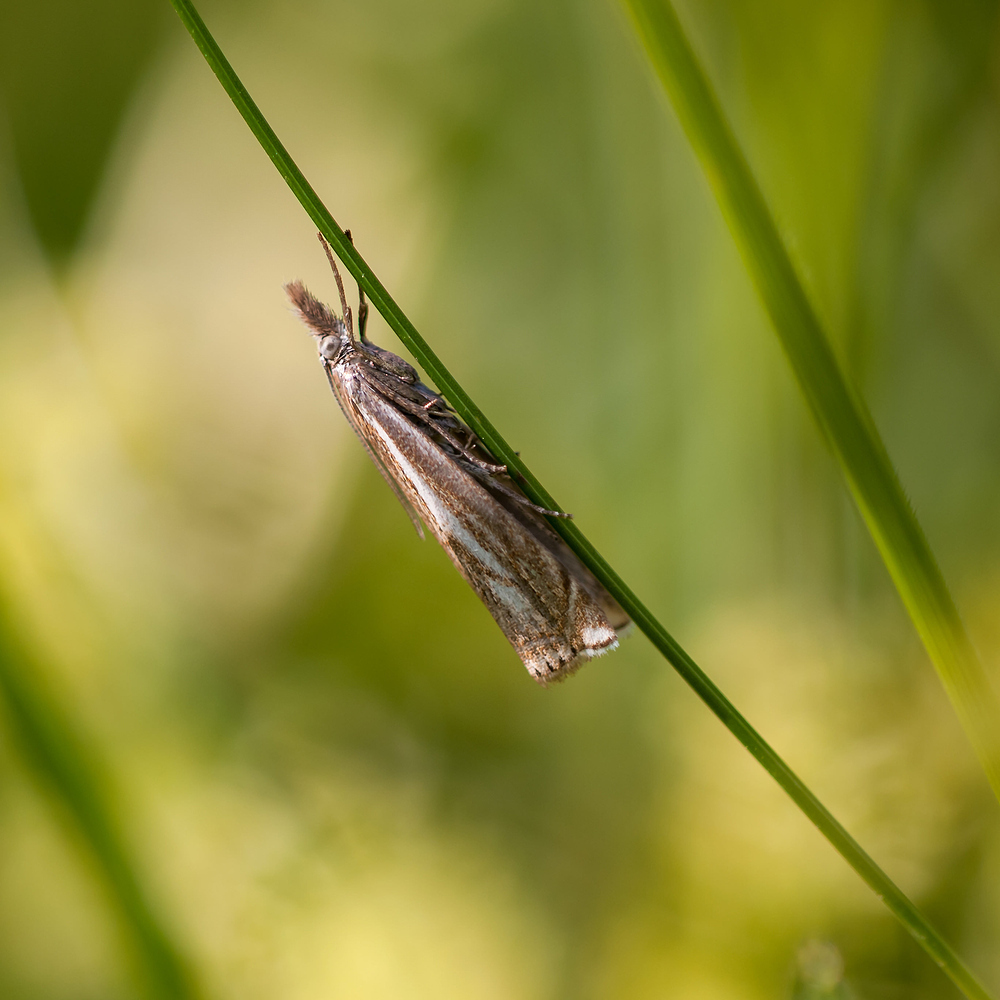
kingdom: Animalia
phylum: Arthropoda
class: Insecta
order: Lepidoptera
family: Crambidae
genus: Crambus
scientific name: Crambus nemorella
